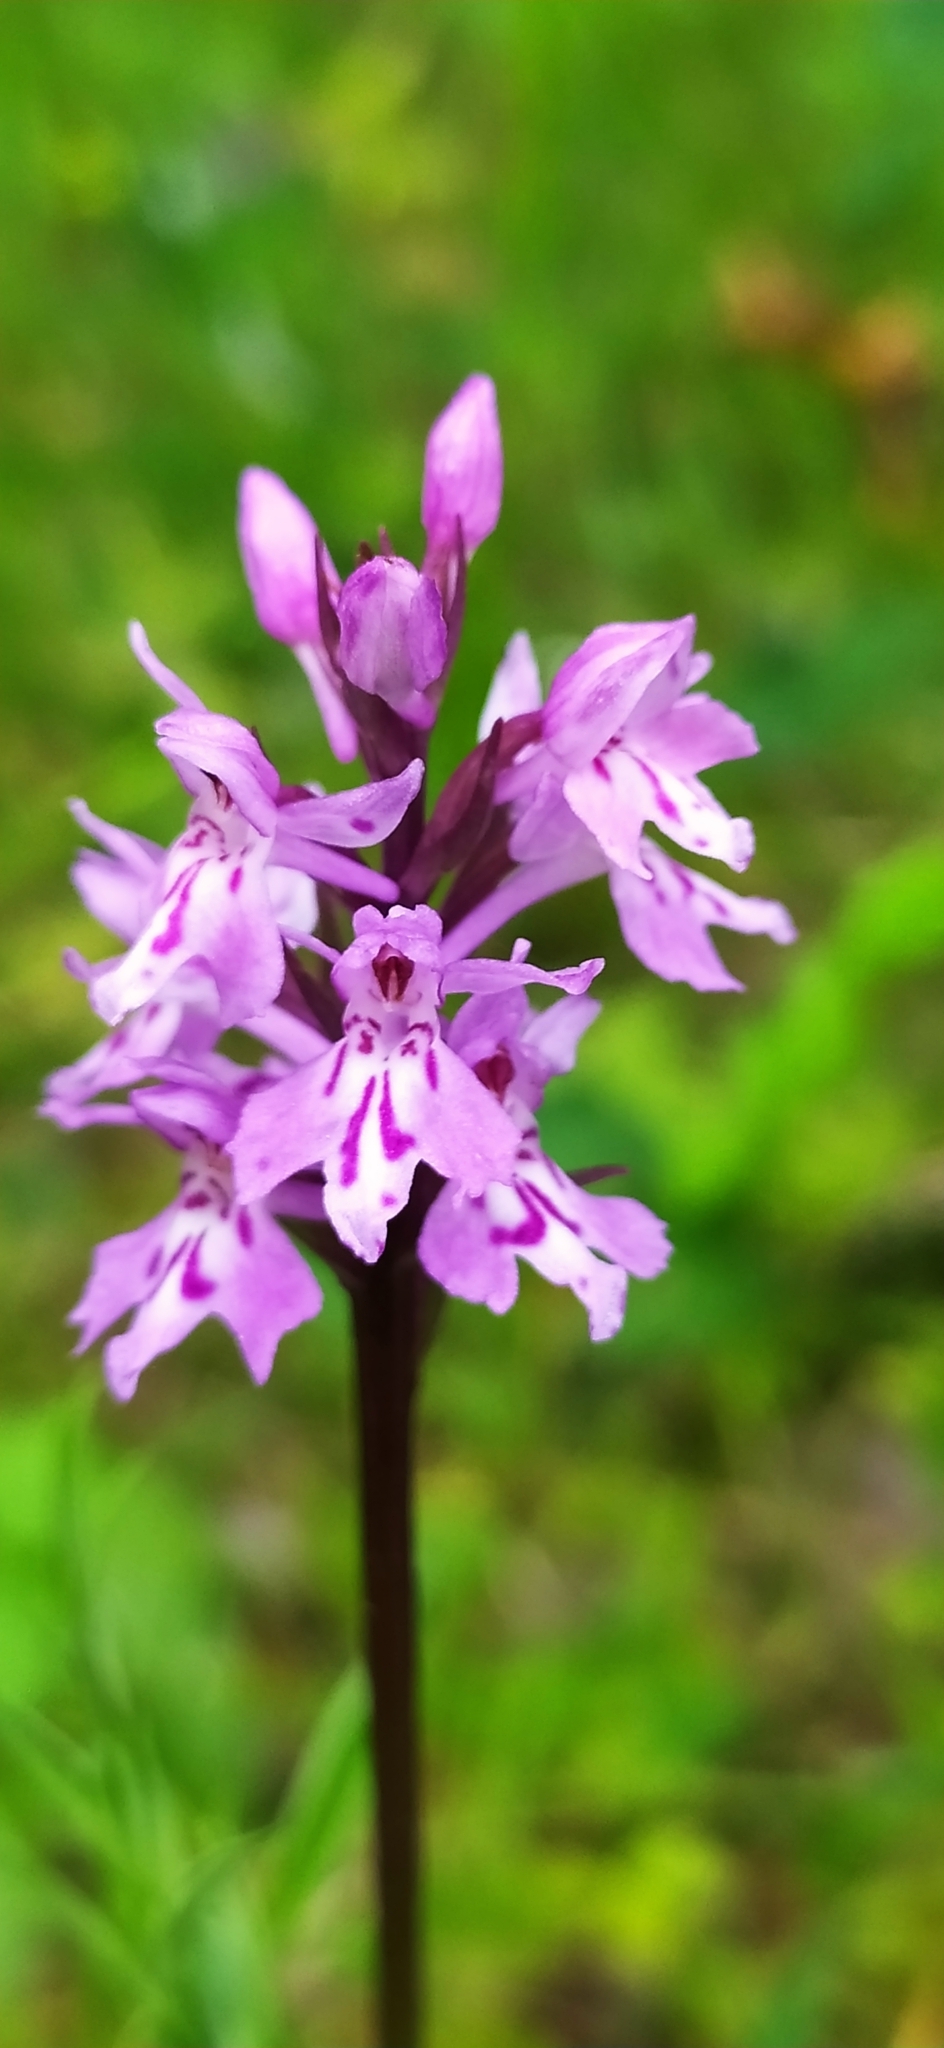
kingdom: Plantae
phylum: Tracheophyta
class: Liliopsida
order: Asparagales
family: Orchidaceae
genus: Dactylorhiza
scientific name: Dactylorhiza maculata
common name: Heath spotted-orchid
